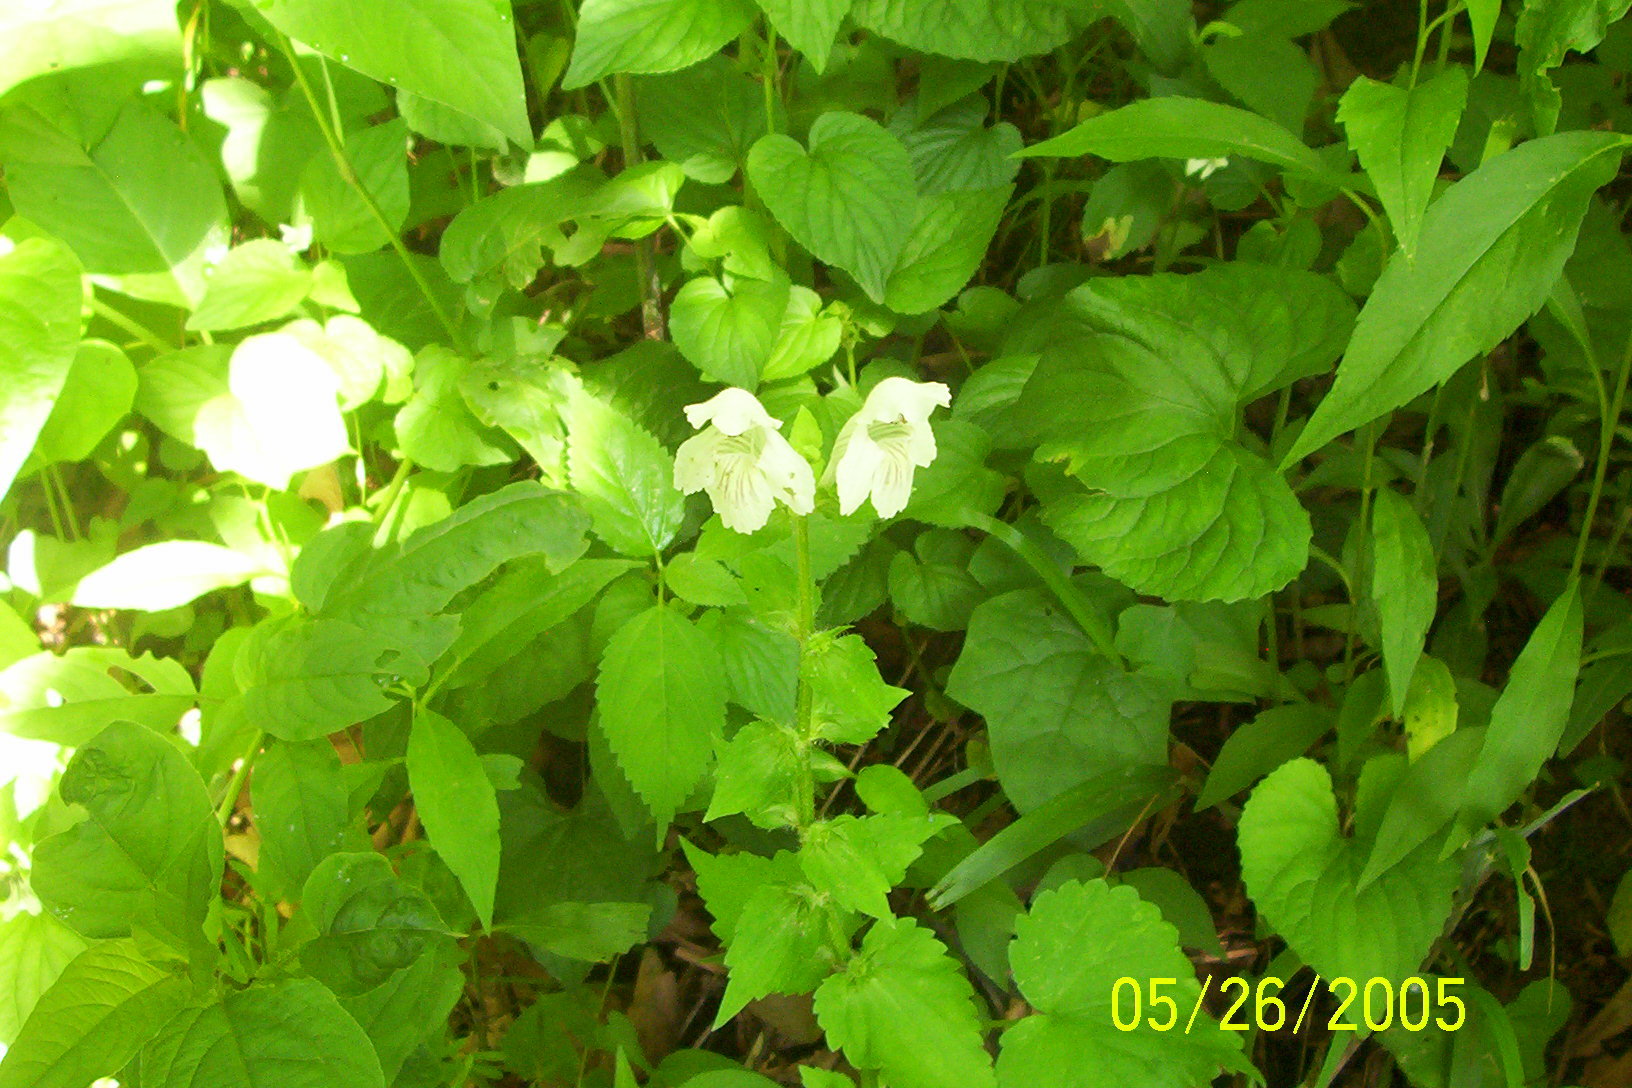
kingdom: Plantae
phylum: Tracheophyta
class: Magnoliopsida
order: Lamiales
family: Lamiaceae
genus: Synandra
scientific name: Synandra hispidula
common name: Synandra
